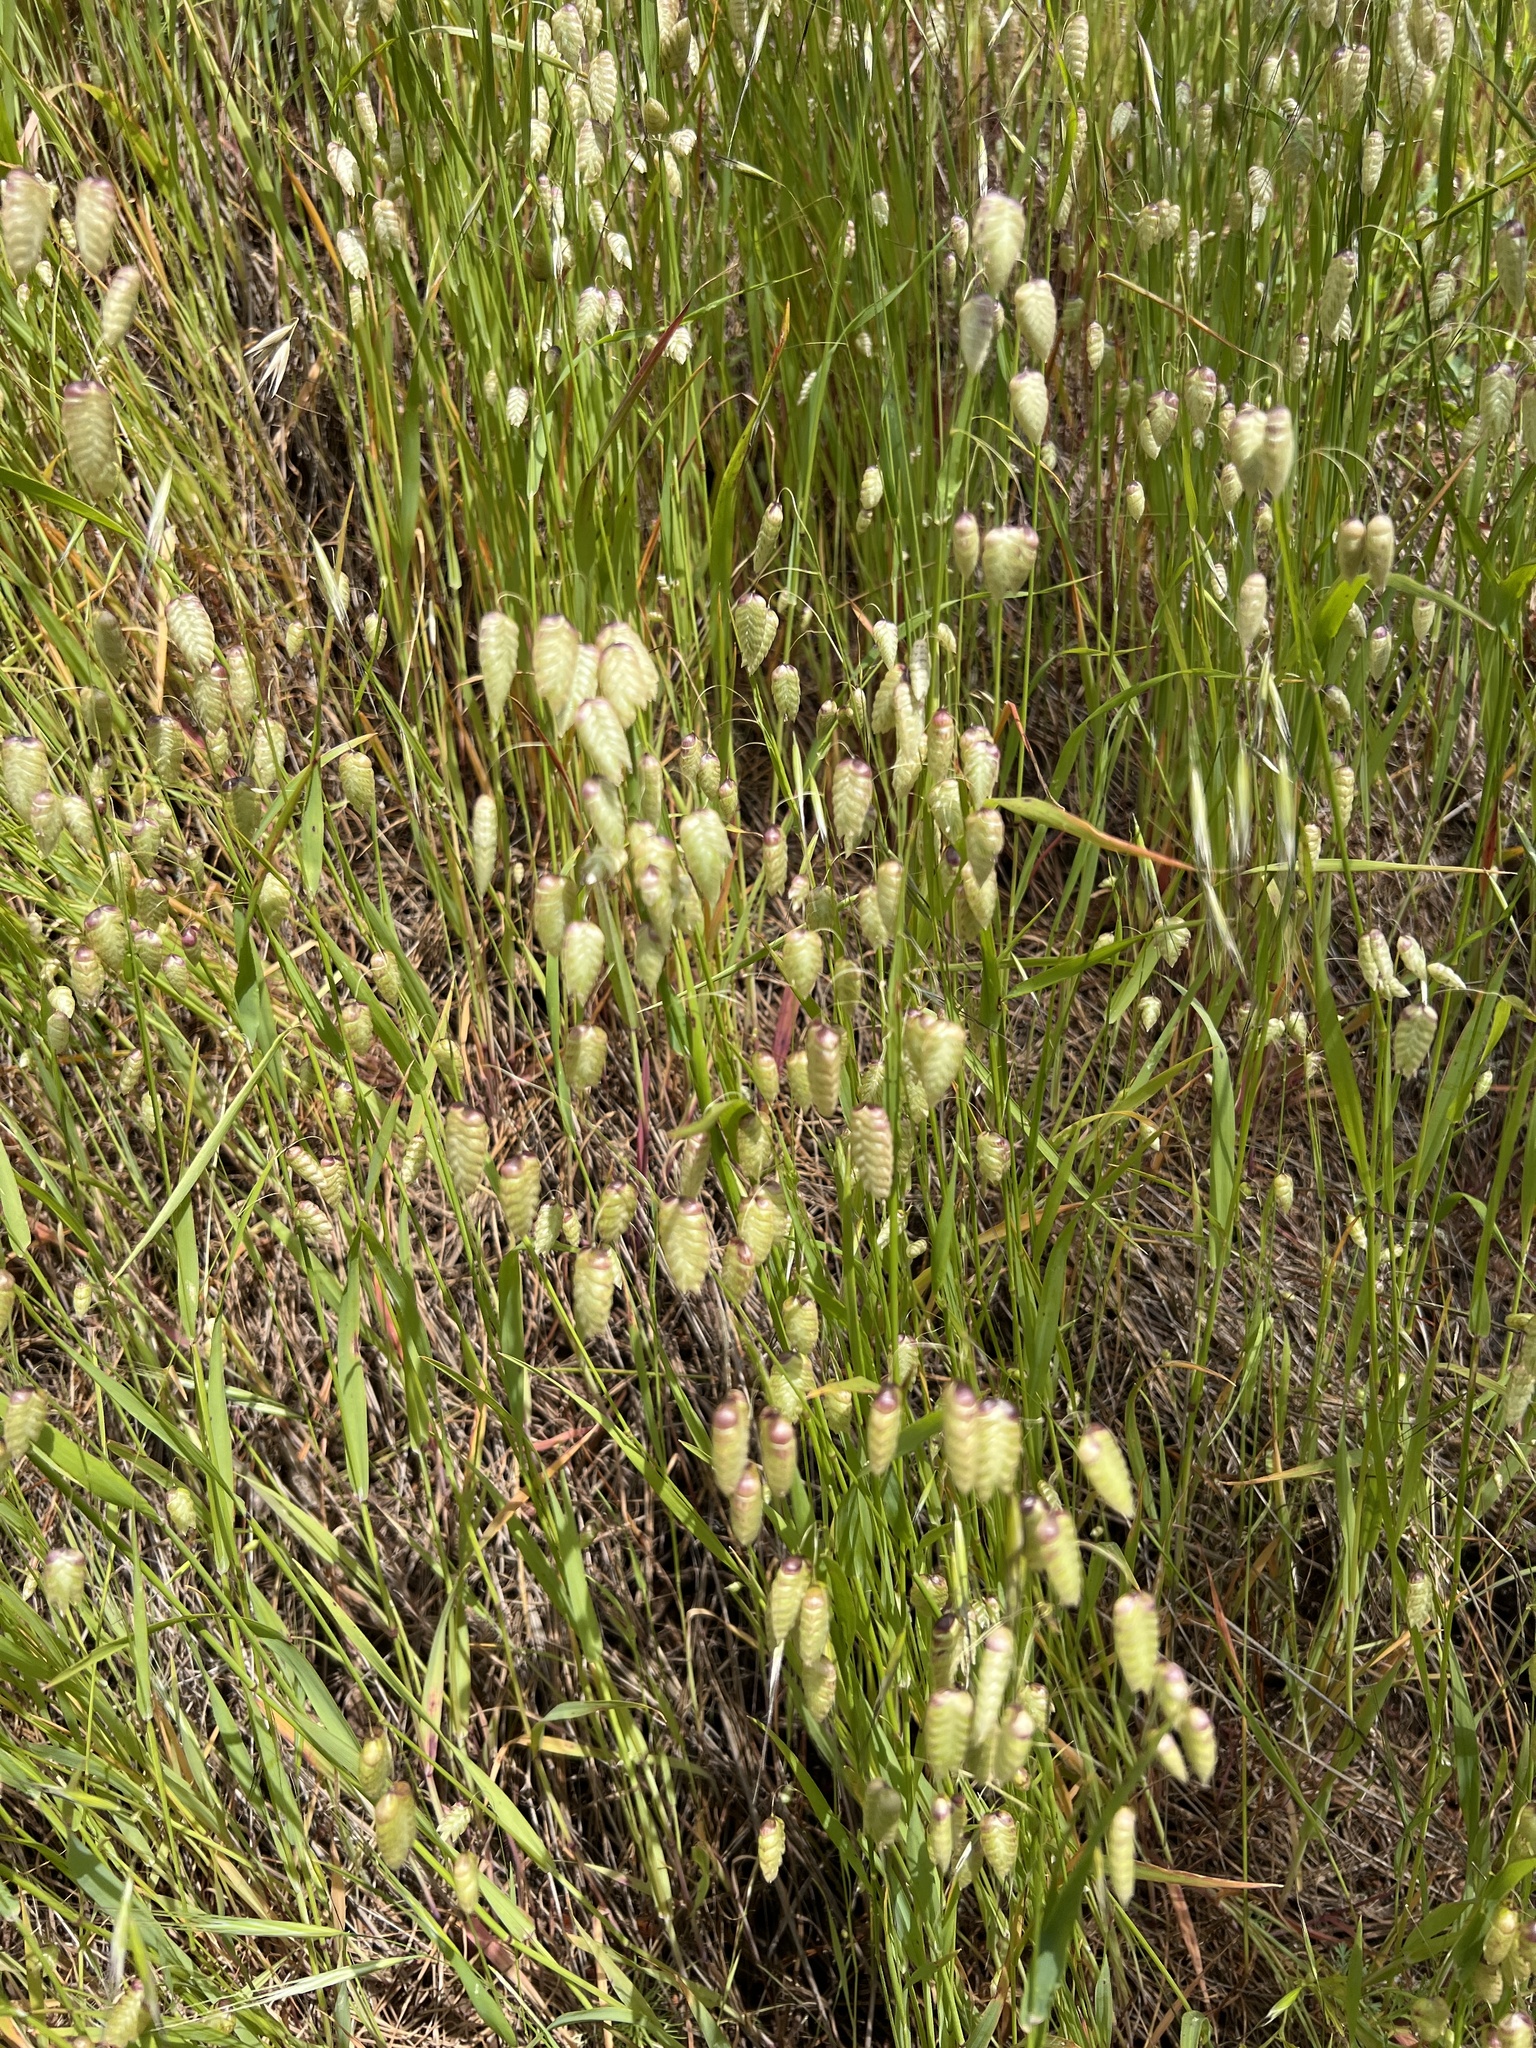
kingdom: Plantae
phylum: Tracheophyta
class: Liliopsida
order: Poales
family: Poaceae
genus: Briza
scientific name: Briza maxima
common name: Big quakinggrass
